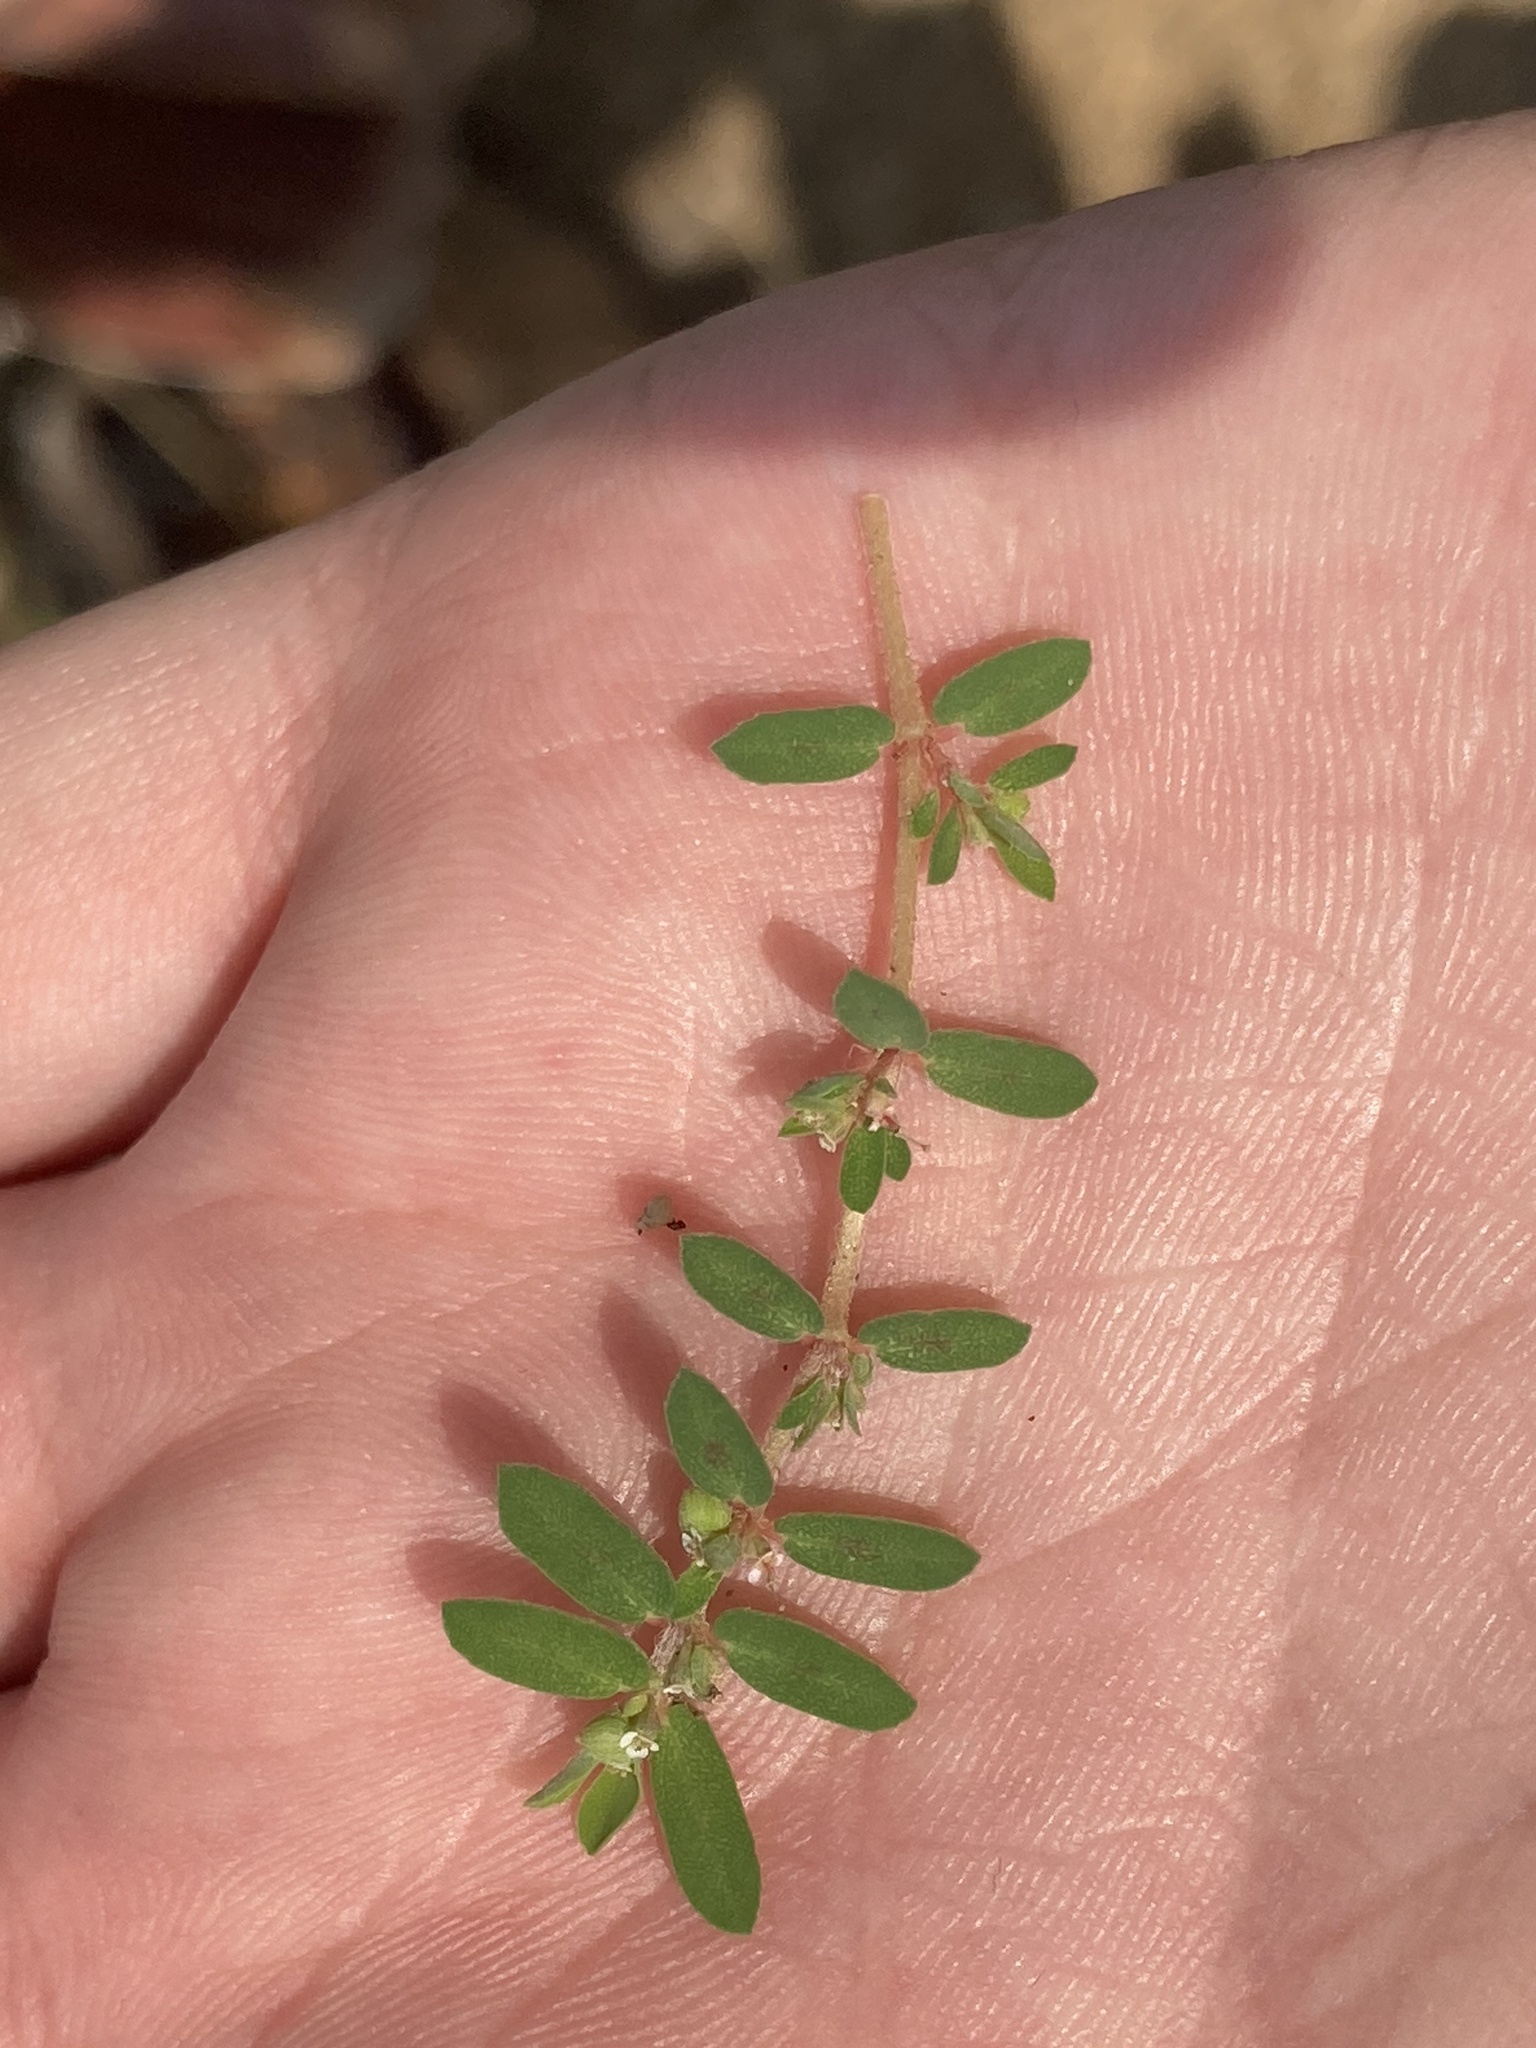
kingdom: Plantae
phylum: Tracheophyta
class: Magnoliopsida
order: Malpighiales
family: Euphorbiaceae
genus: Euphorbia
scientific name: Euphorbia maculata
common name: Spotted spurge
